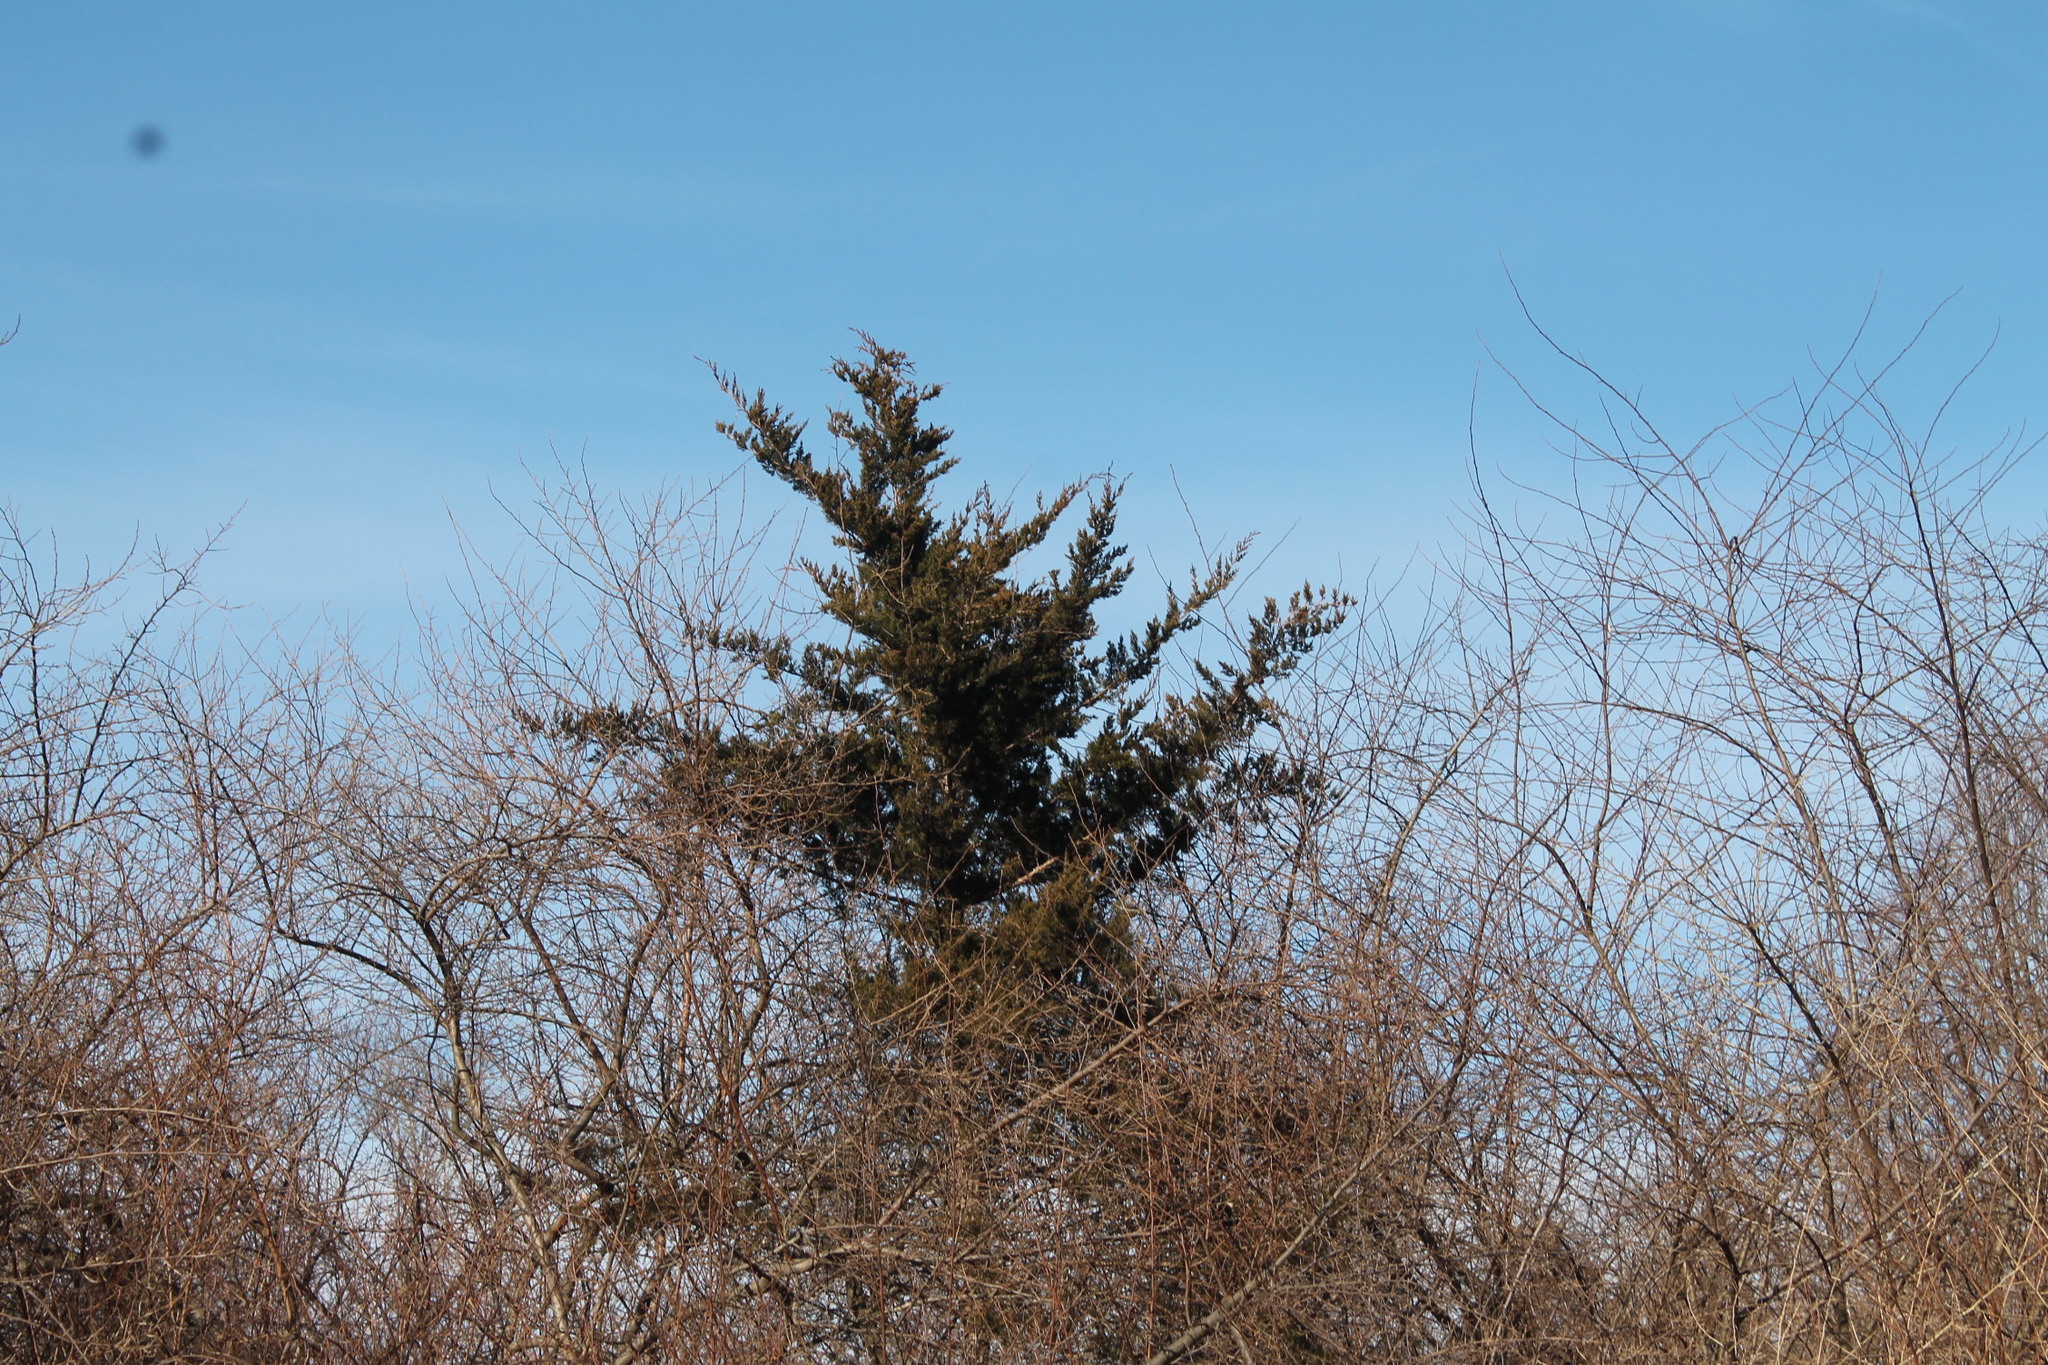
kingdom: Plantae
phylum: Tracheophyta
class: Pinopsida
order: Pinales
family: Cupressaceae
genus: Juniperus
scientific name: Juniperus virginiana
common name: Red juniper
